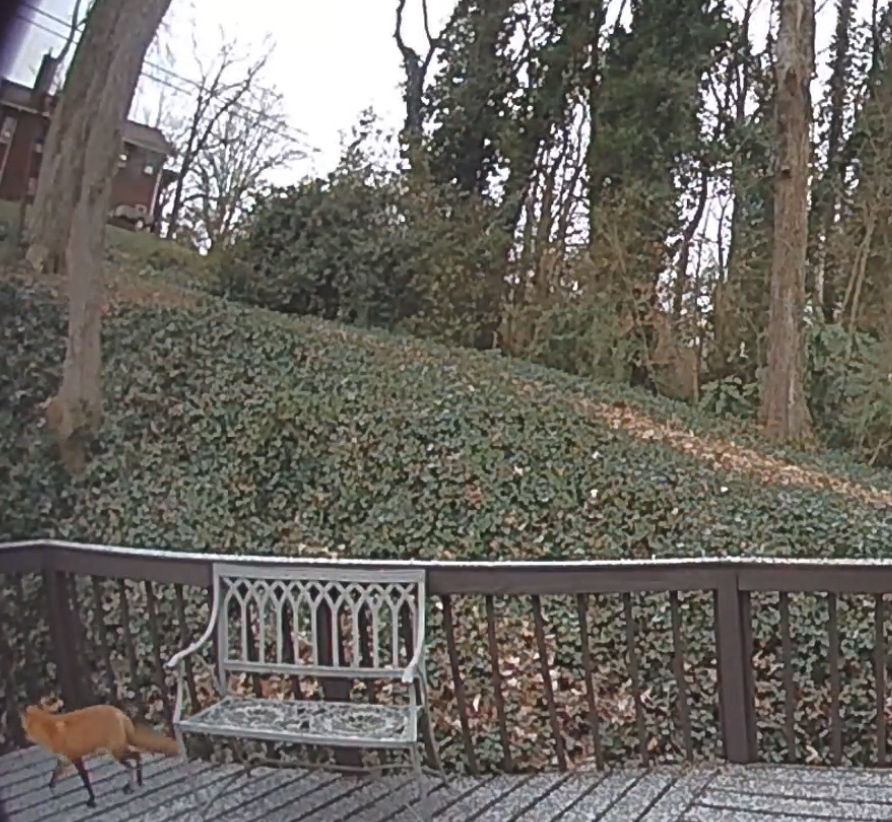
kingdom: Animalia
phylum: Chordata
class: Mammalia
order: Carnivora
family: Canidae
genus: Vulpes
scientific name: Vulpes vulpes
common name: Red fox
